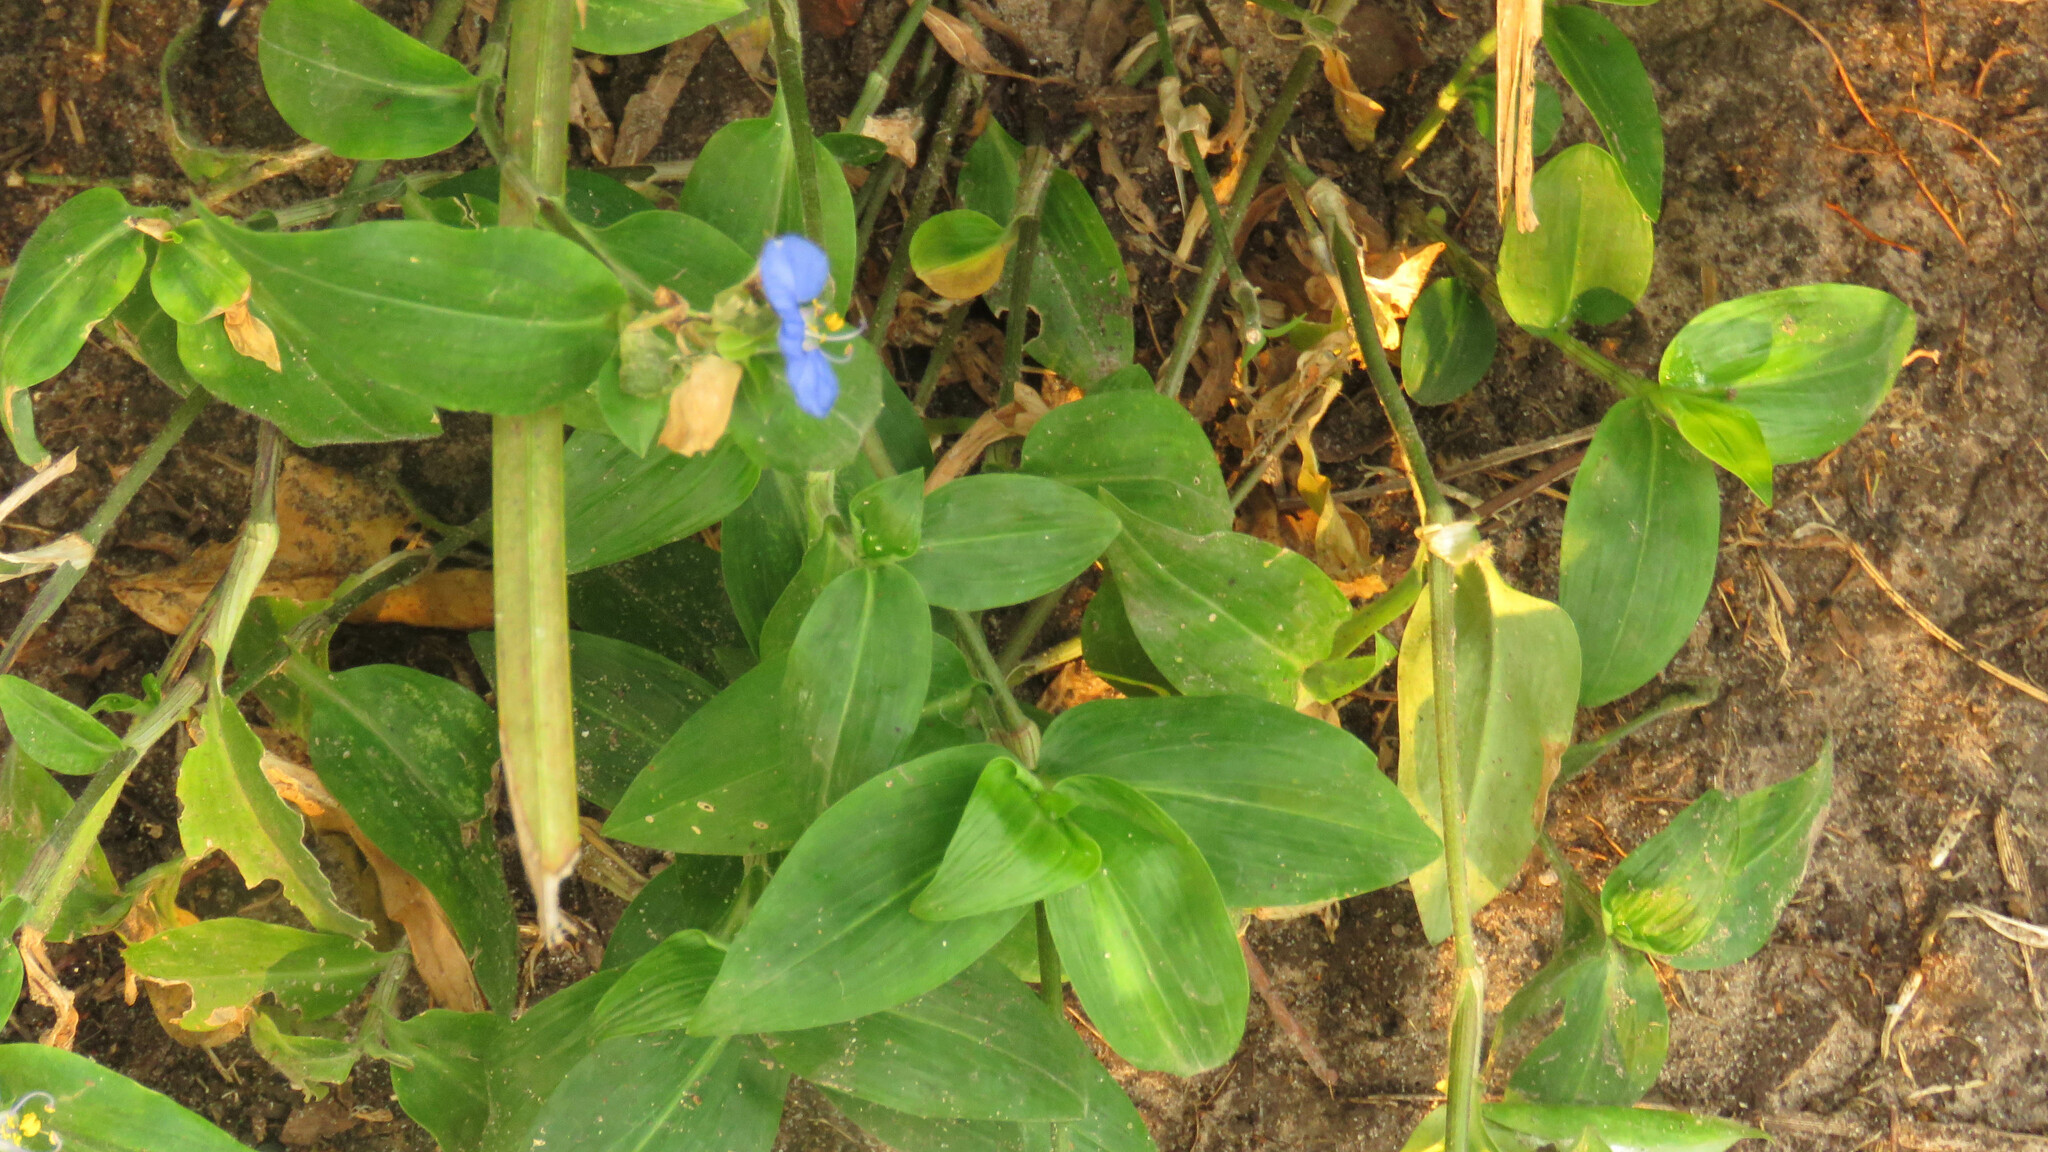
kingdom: Plantae
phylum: Tracheophyta
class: Liliopsida
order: Commelinales
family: Commelinaceae
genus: Commelina
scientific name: Commelina erecta
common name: Blousel blommetjie
